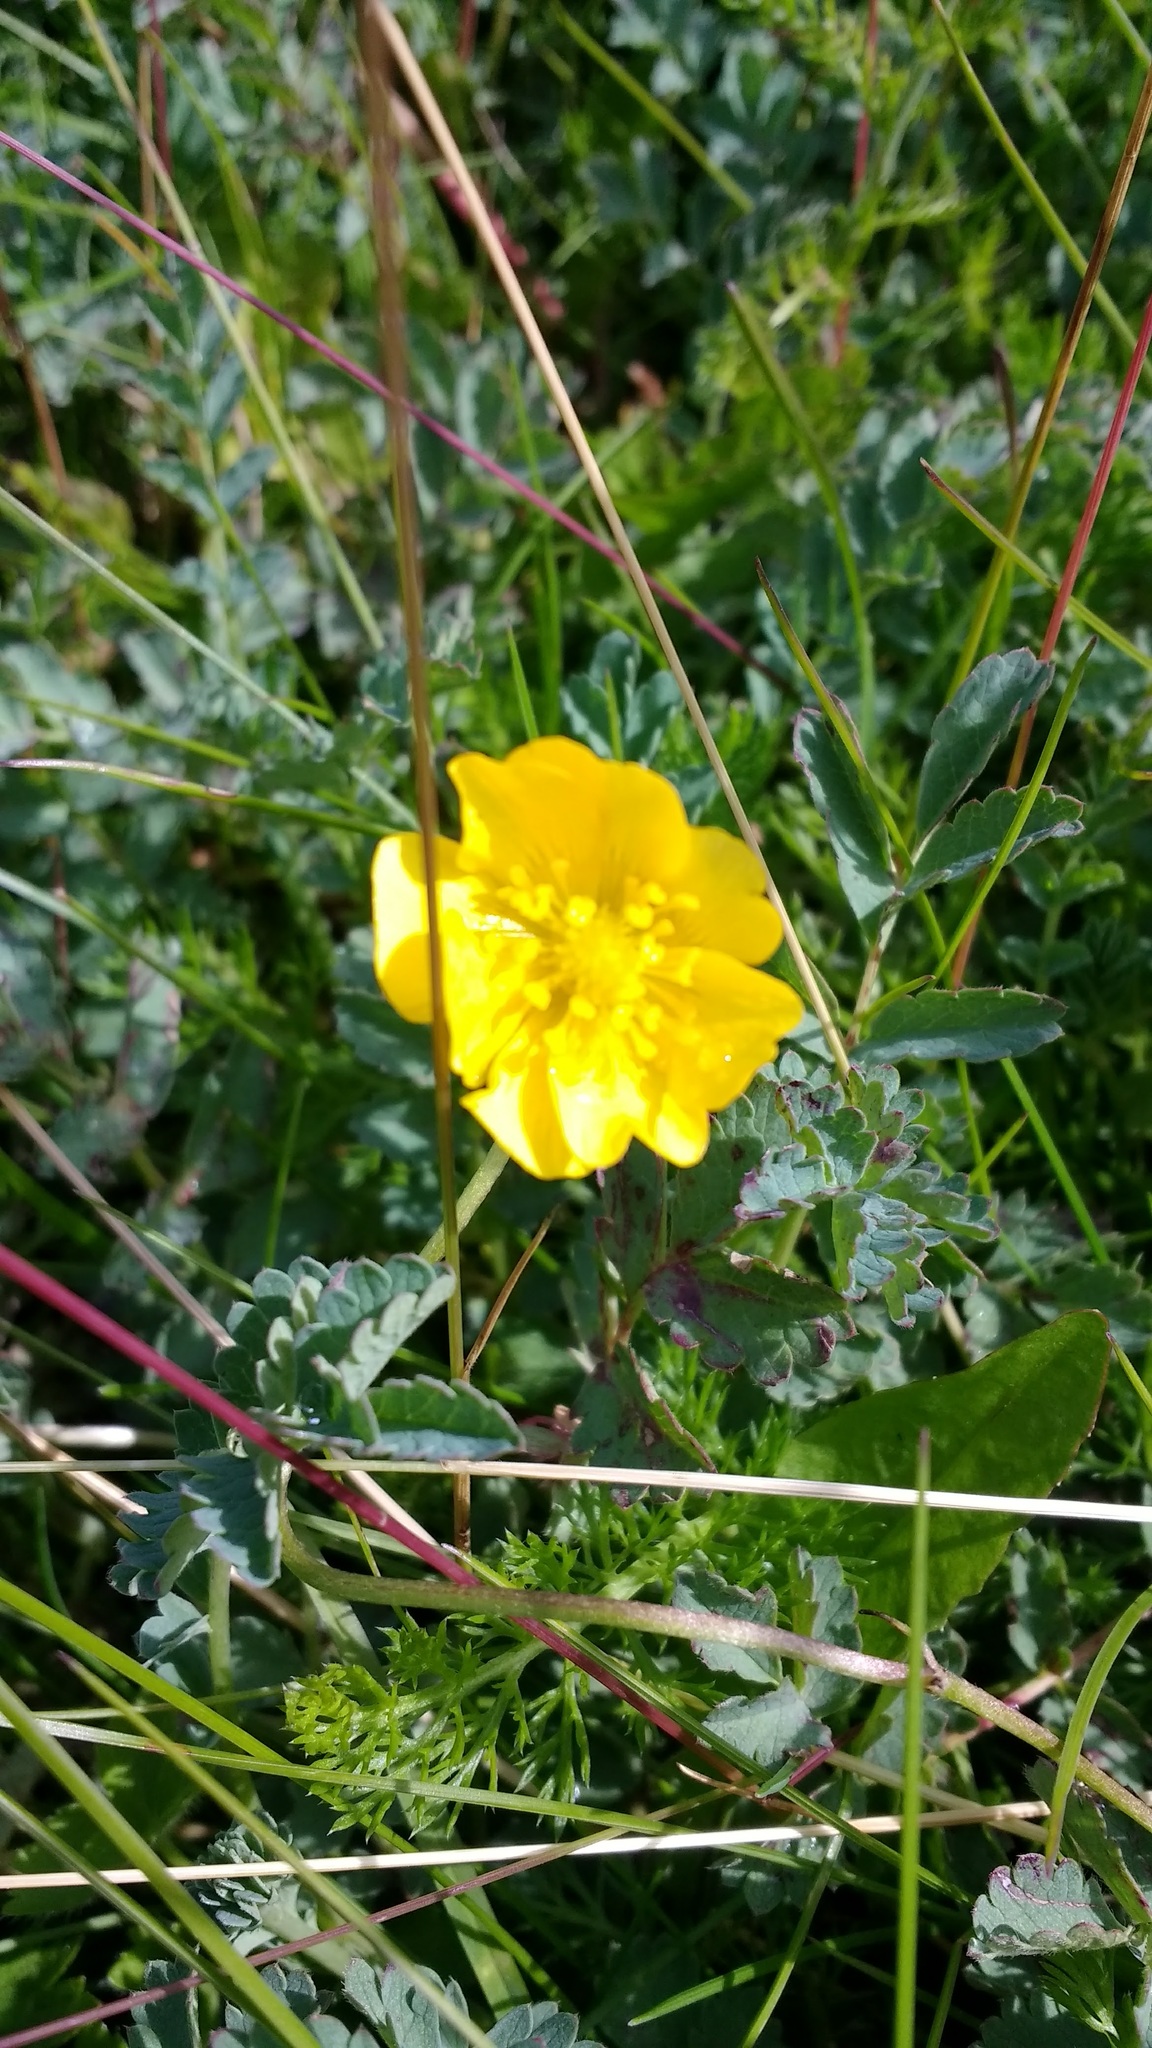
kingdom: Plantae
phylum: Tracheophyta
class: Magnoliopsida
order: Ranunculales
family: Ranunculaceae
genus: Ranunculus
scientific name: Ranunculus peduncularis
